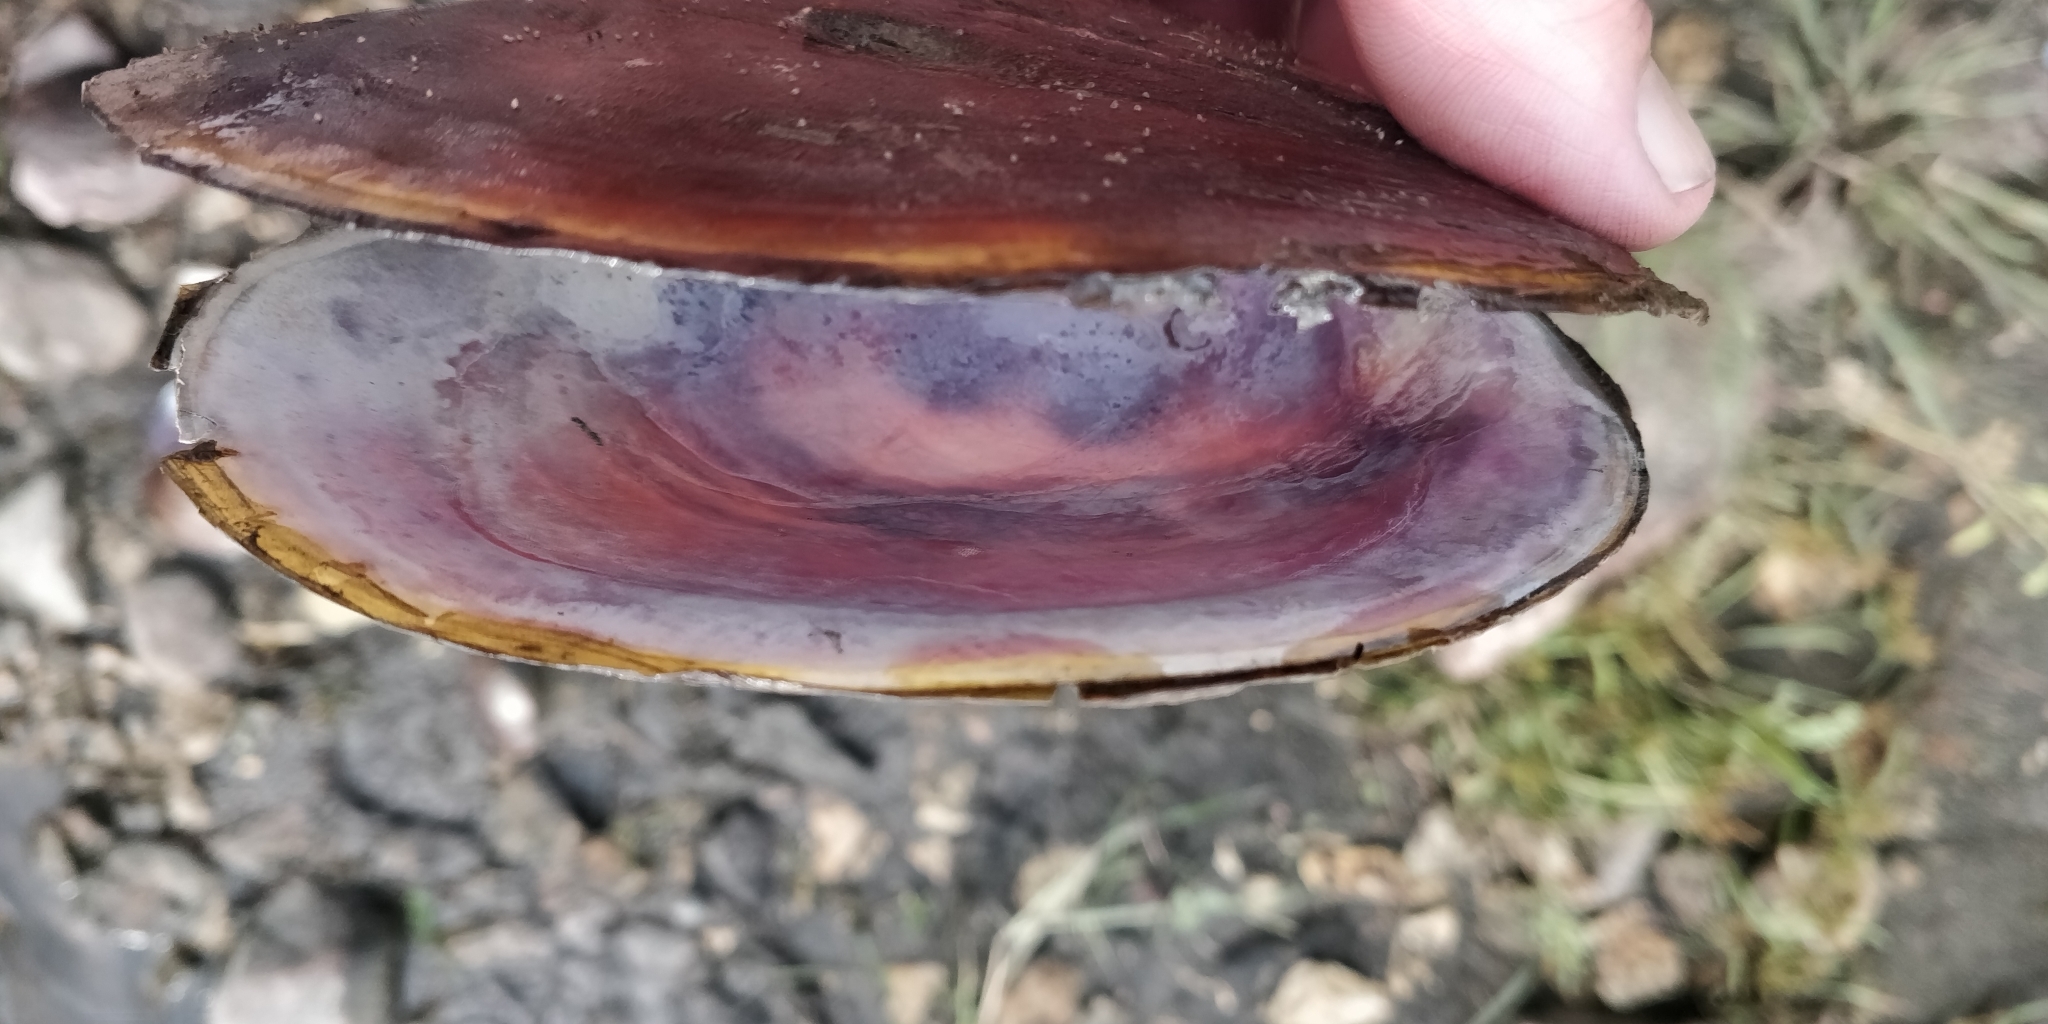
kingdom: Animalia
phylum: Mollusca
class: Bivalvia
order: Unionida
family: Unionidae
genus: Potamilus
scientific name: Potamilus ohiensis
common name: Pink papershell
